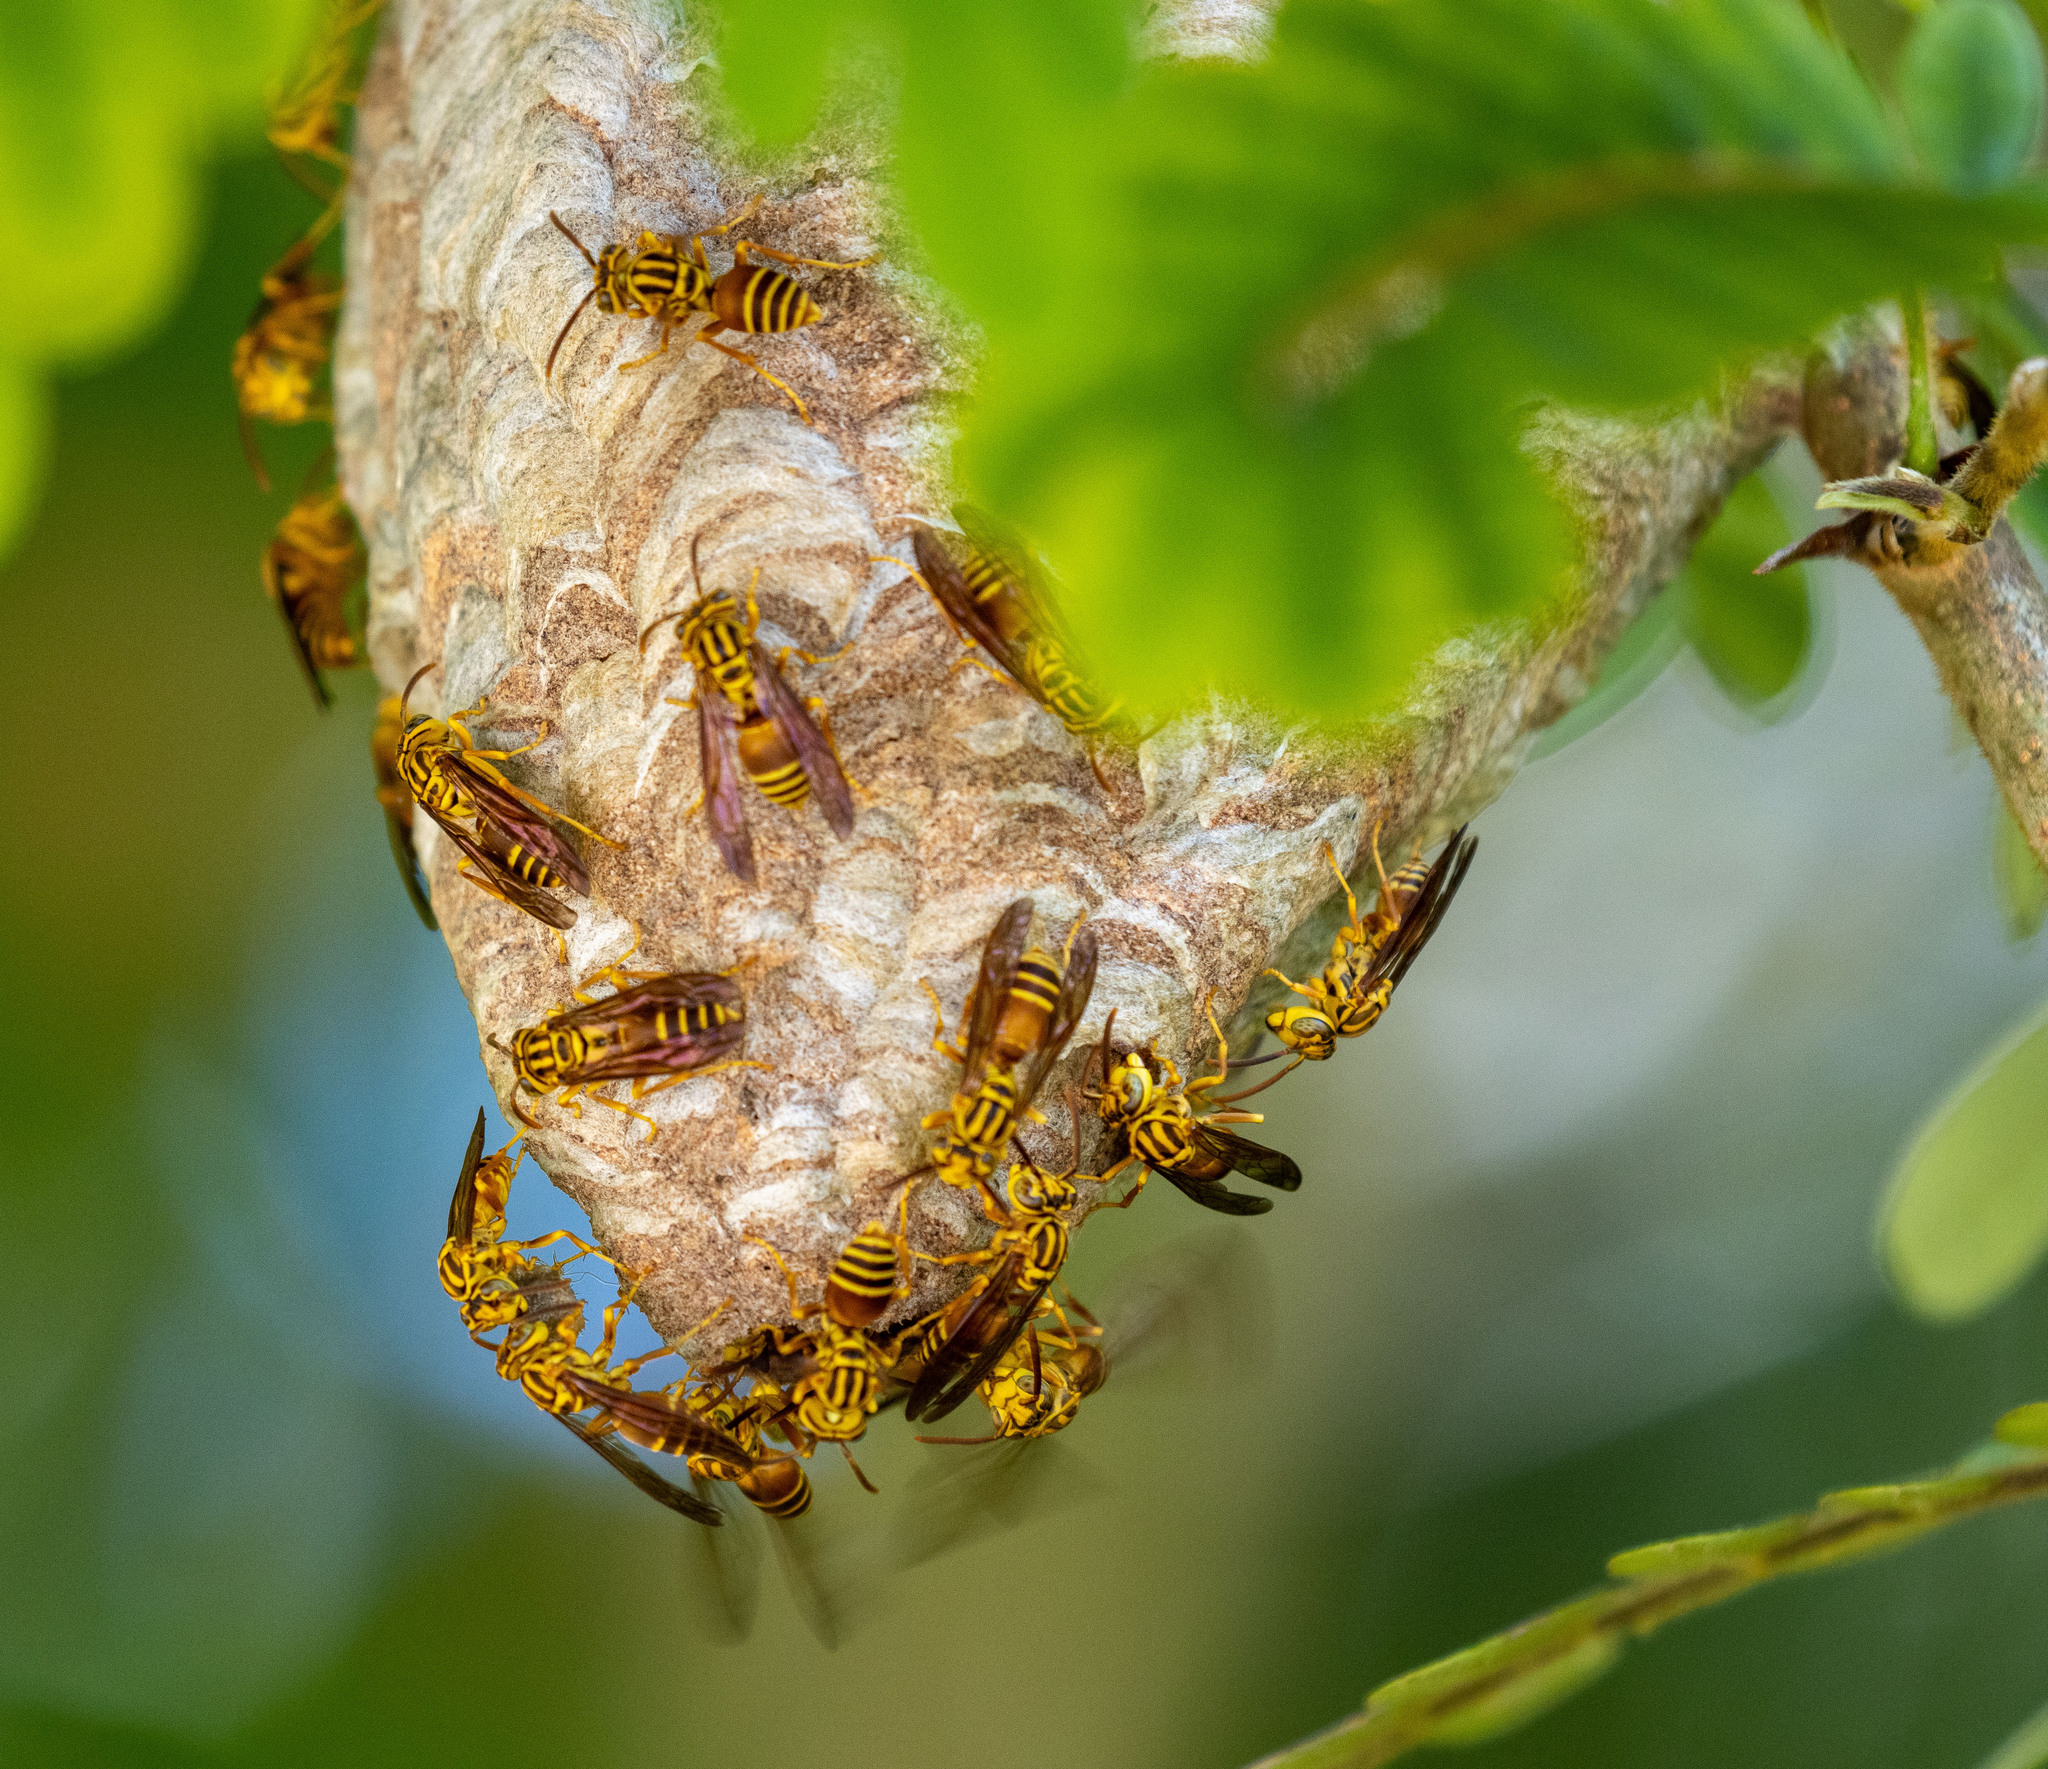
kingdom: Animalia
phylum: Arthropoda
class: Insecta
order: Hymenoptera
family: Vespidae
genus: Parachartergus
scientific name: Parachartergus vespiceps
